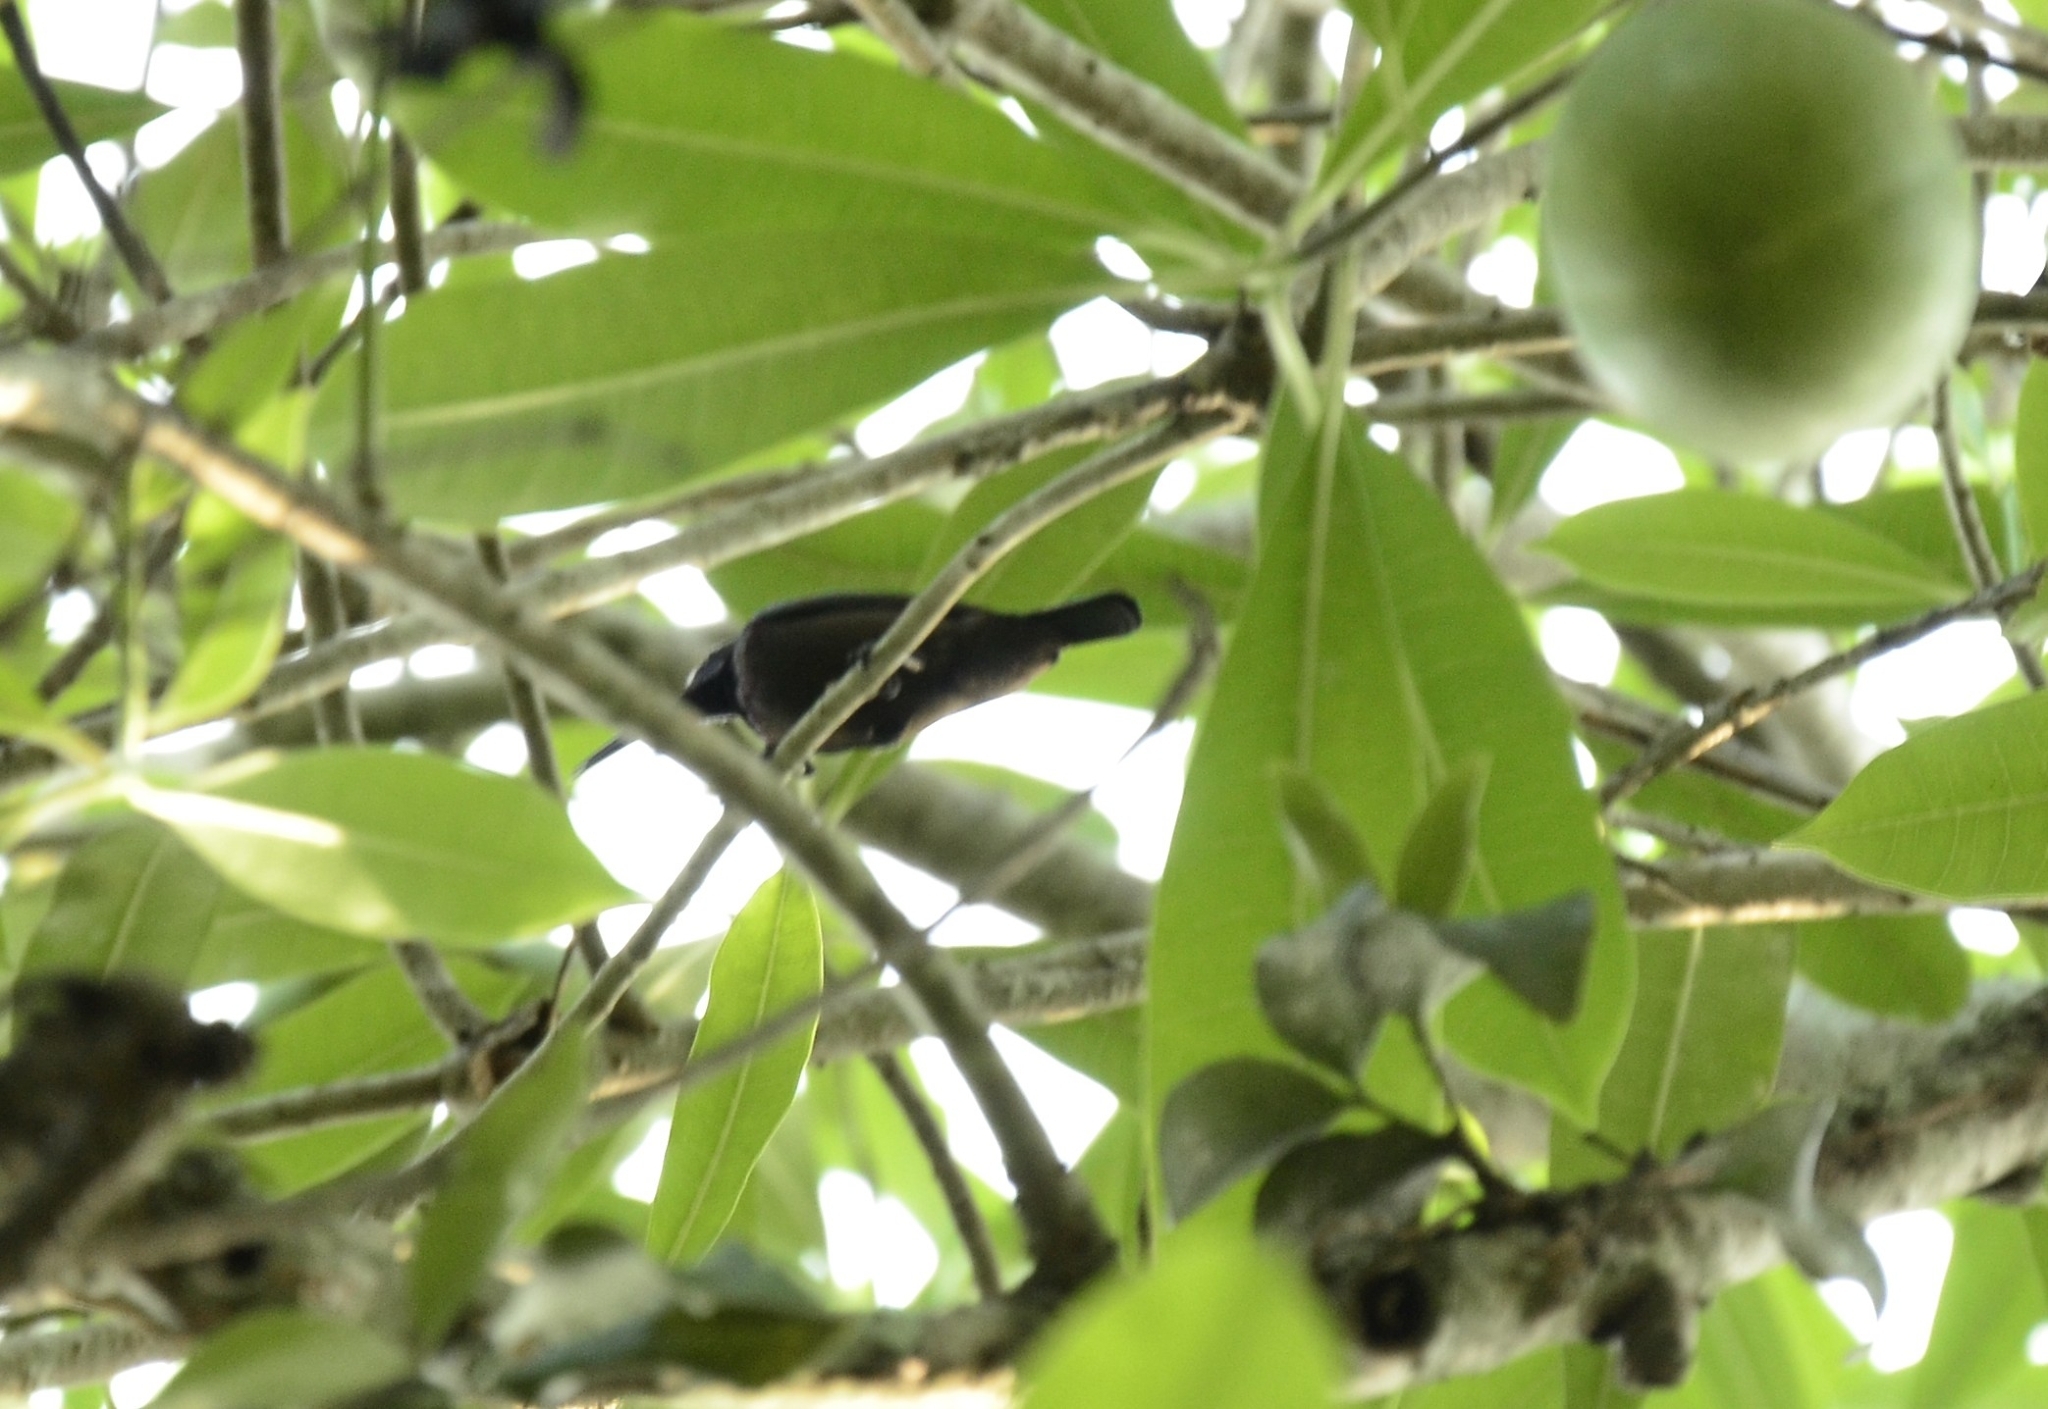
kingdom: Animalia
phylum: Chordata
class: Aves
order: Passeriformes
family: Nectariniidae
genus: Cinnyris
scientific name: Cinnyris lotenius
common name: Loten's sunbird
